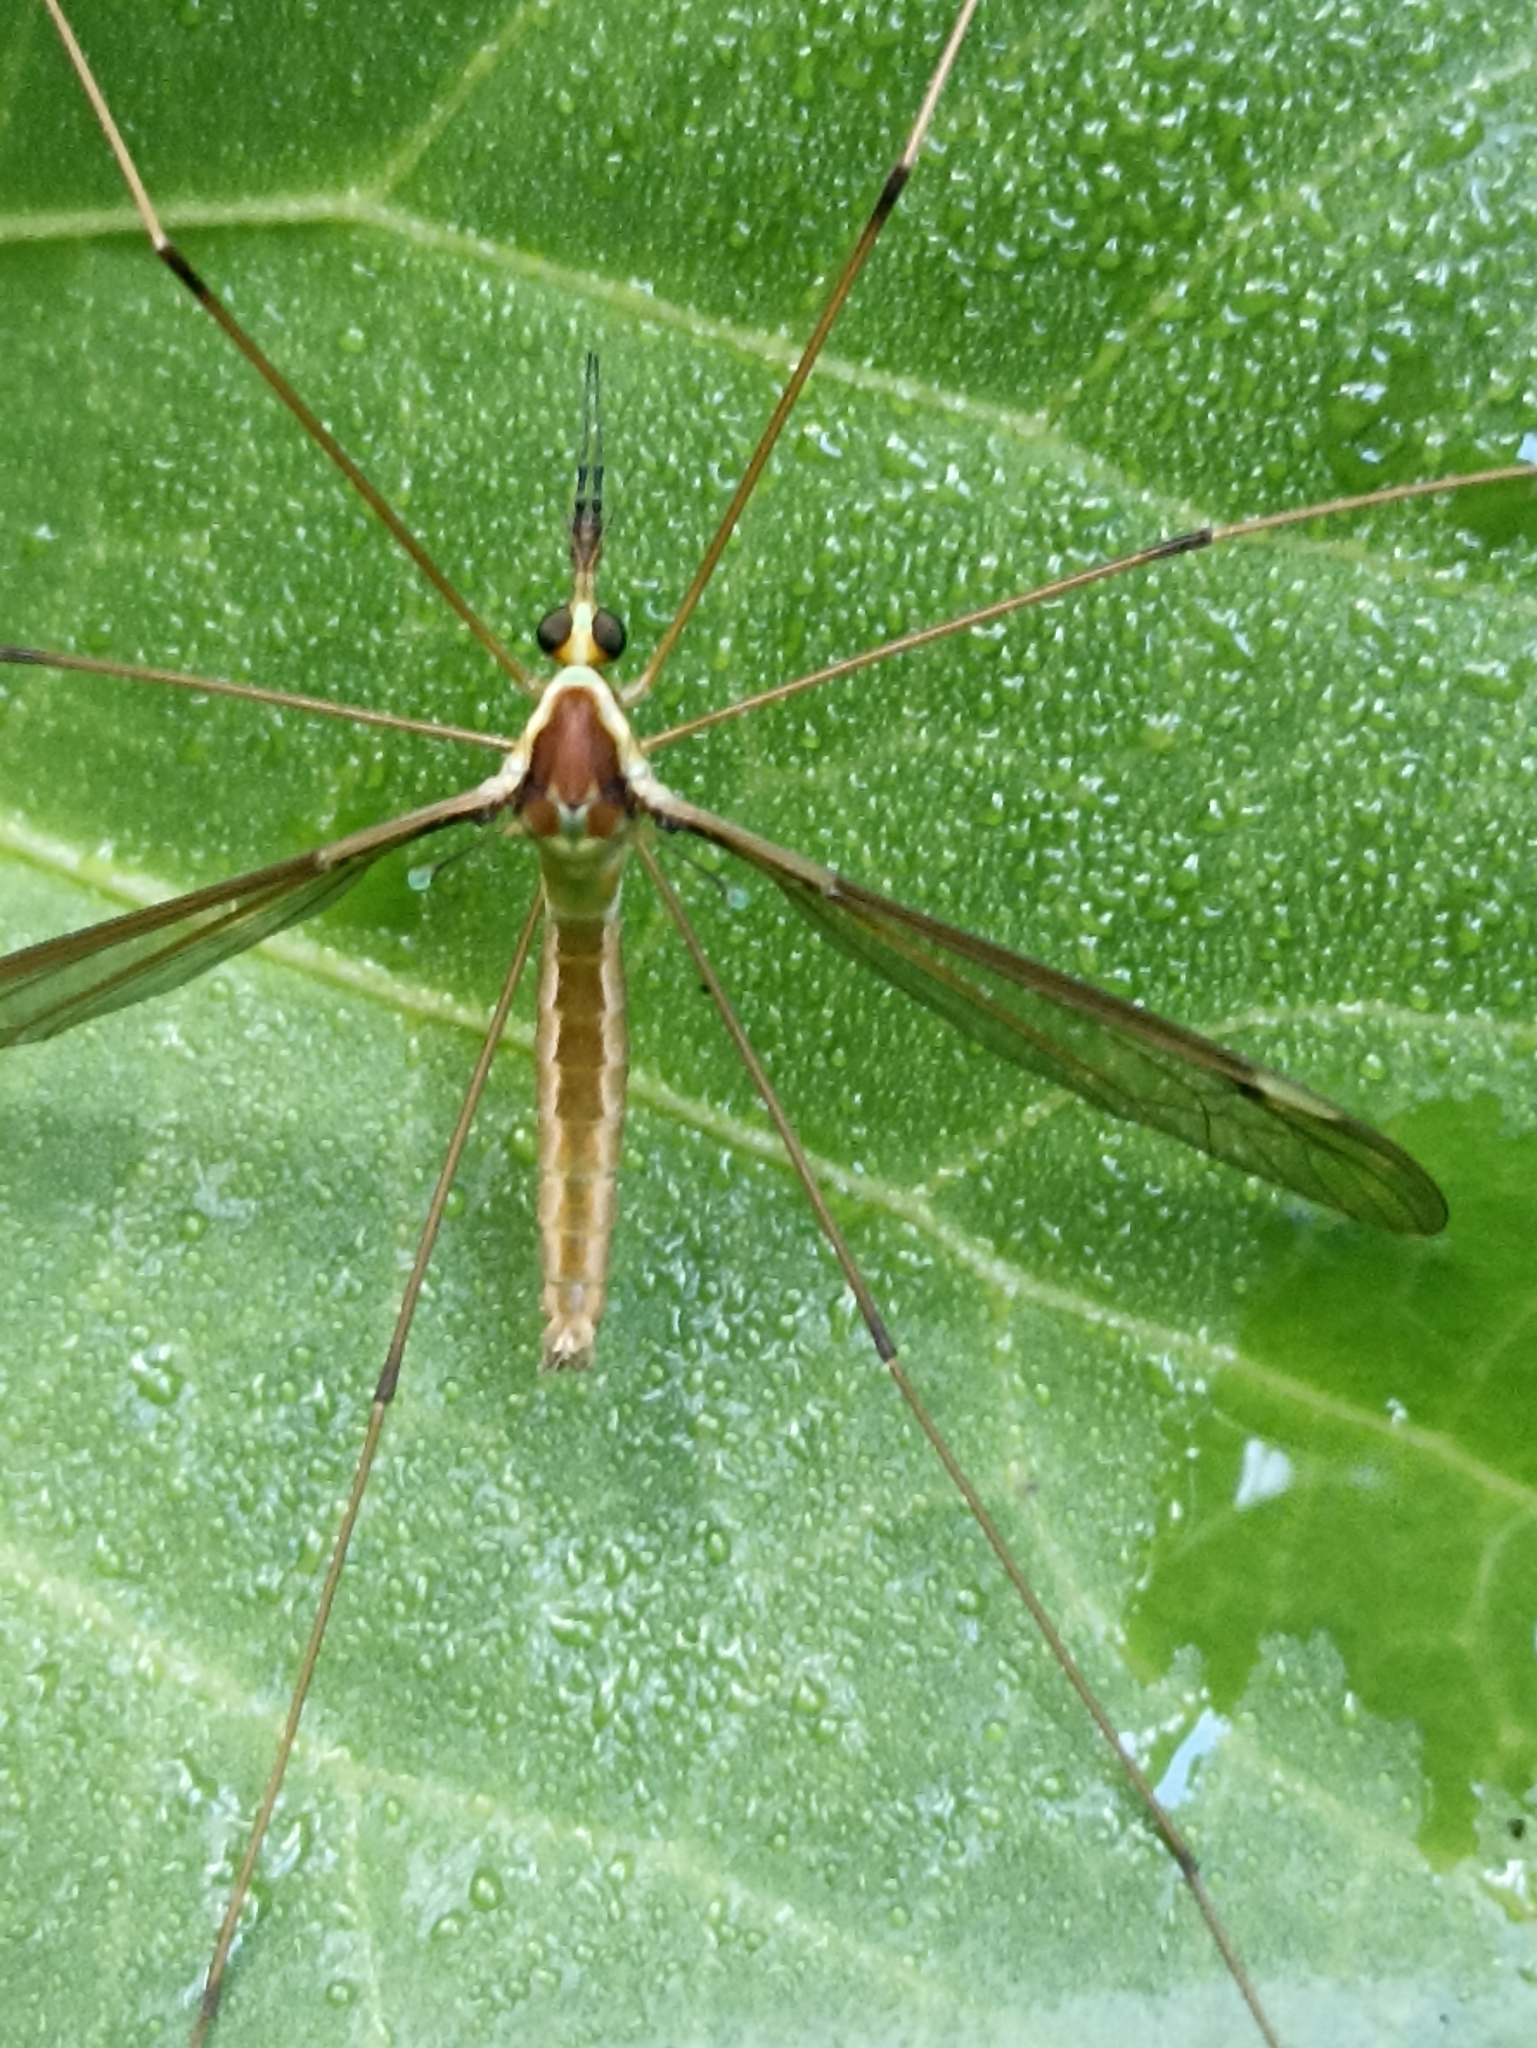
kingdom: Animalia
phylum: Arthropoda
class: Insecta
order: Diptera
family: Tipulidae
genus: Leptotarsus
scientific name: Leptotarsus albistigma
